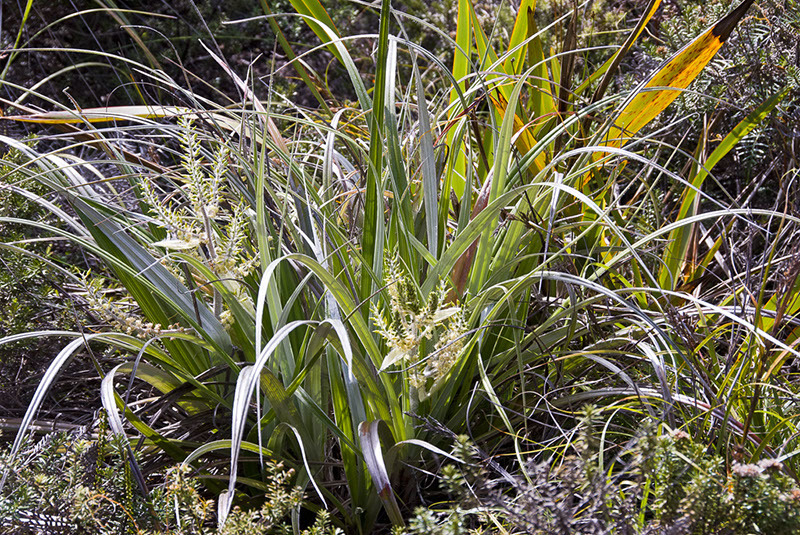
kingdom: Plantae
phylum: Tracheophyta
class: Liliopsida
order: Asparagales
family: Asteliaceae
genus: Astelia
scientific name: Astelia grandis
